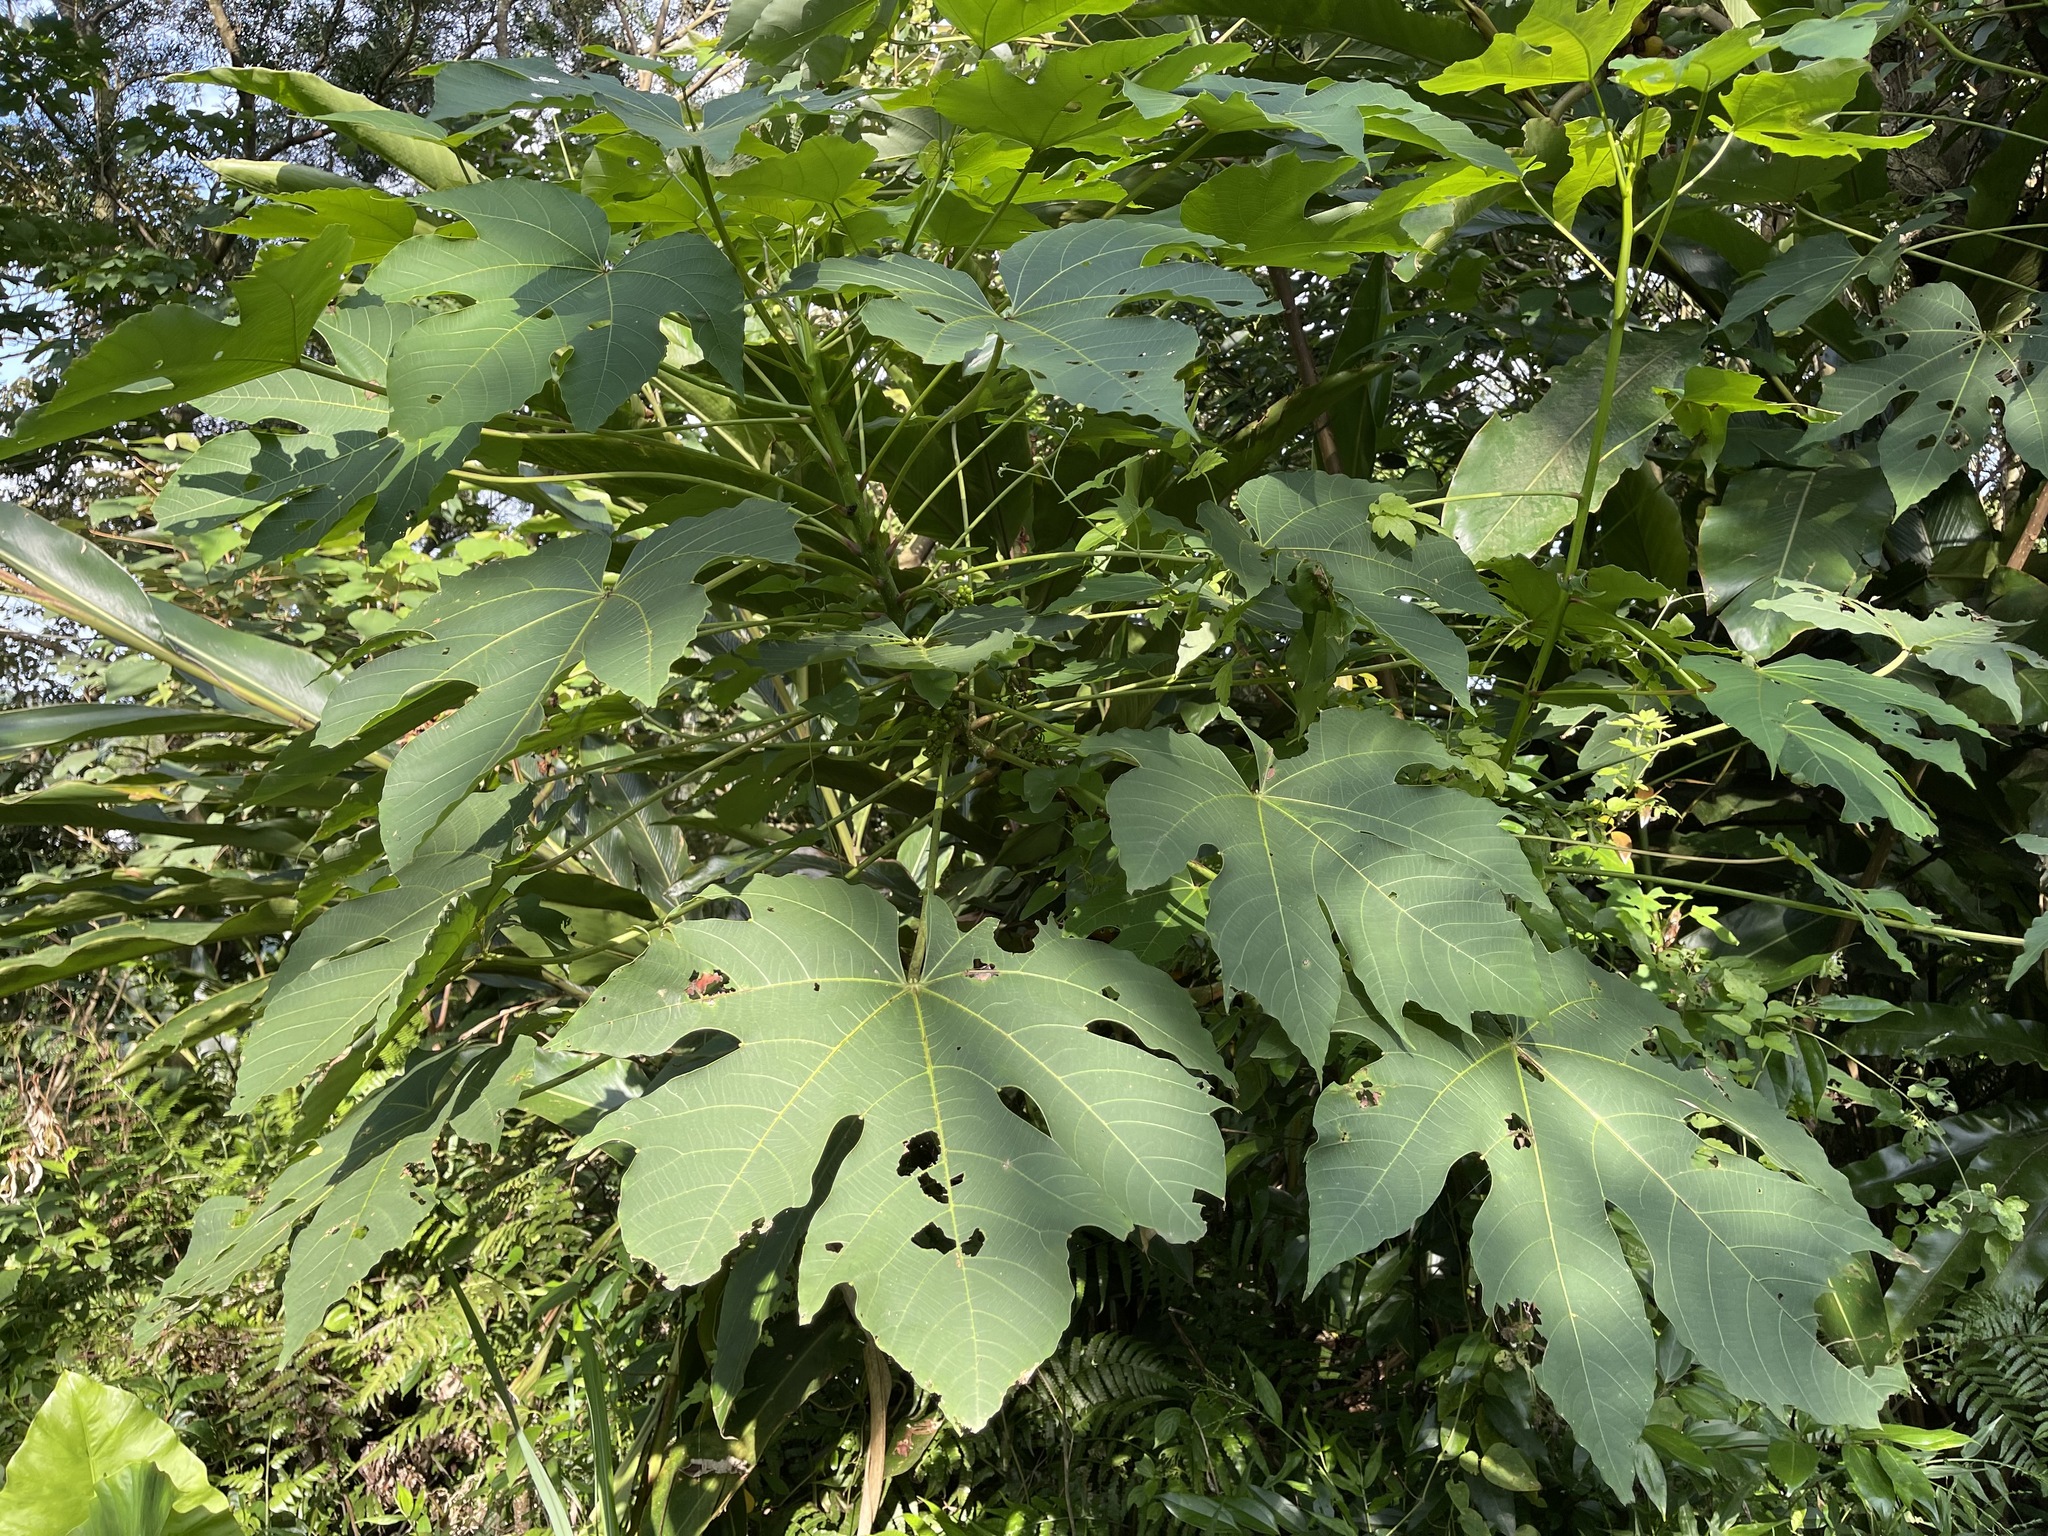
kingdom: Plantae
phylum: Tracheophyta
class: Magnoliopsida
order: Malpighiales
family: Euphorbiaceae
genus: Vernicia
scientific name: Vernicia montana
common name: Mu oil tree
